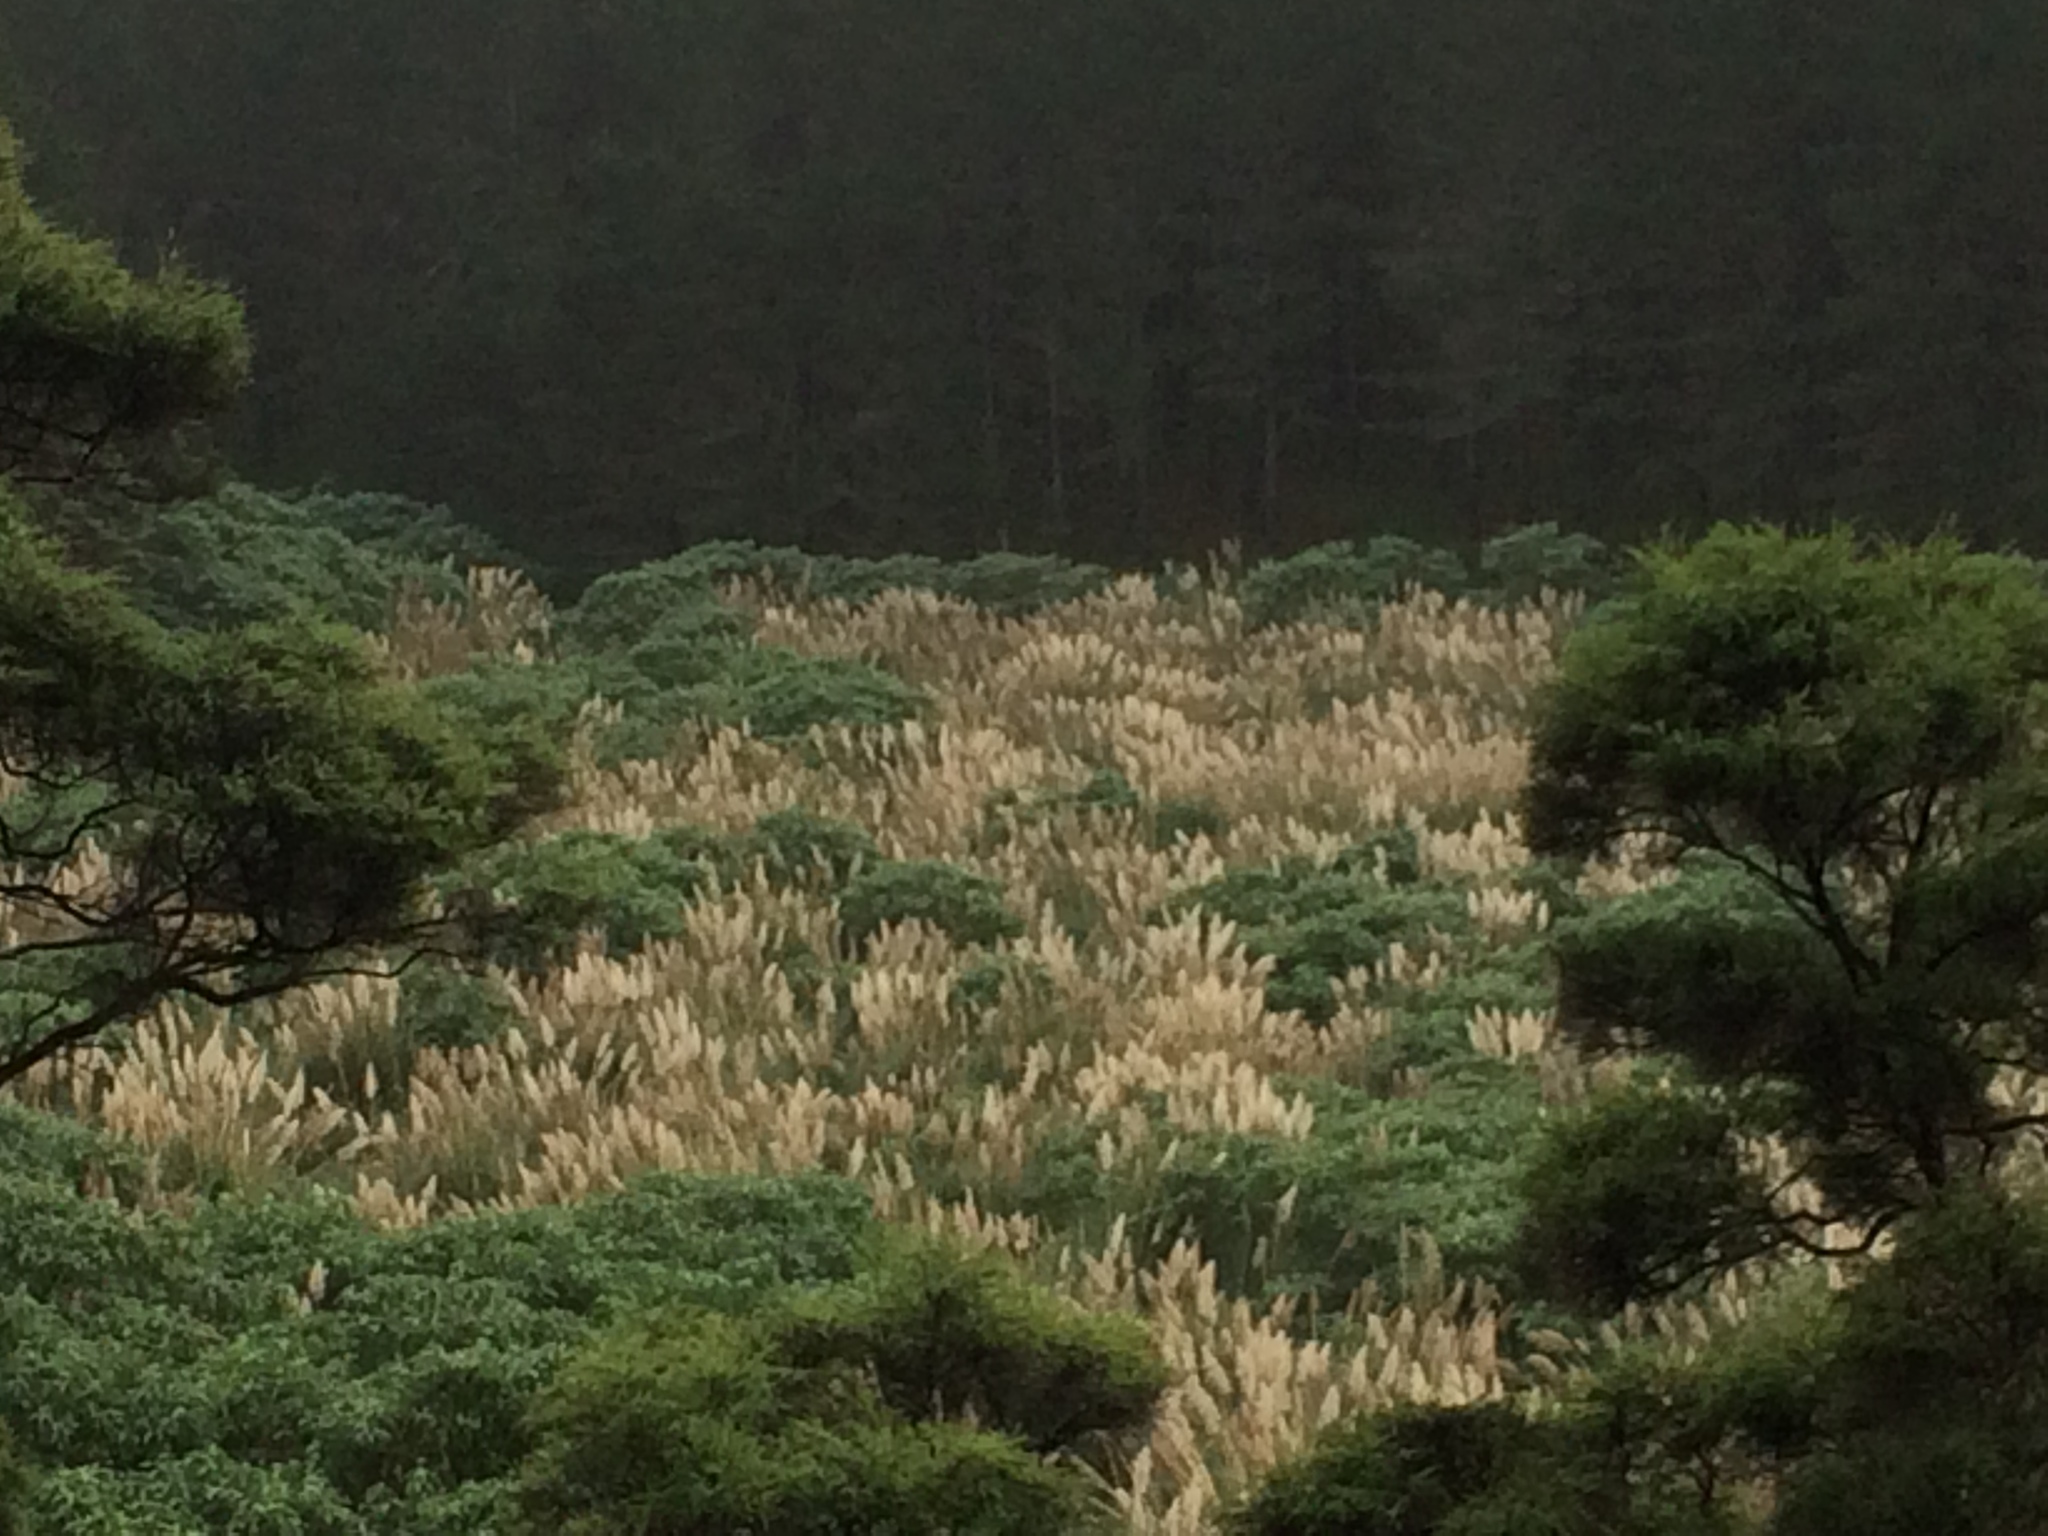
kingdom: Plantae
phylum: Tracheophyta
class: Liliopsida
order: Poales
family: Poaceae
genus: Cortaderia
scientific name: Cortaderia selloana
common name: Uruguayan pampas grass
